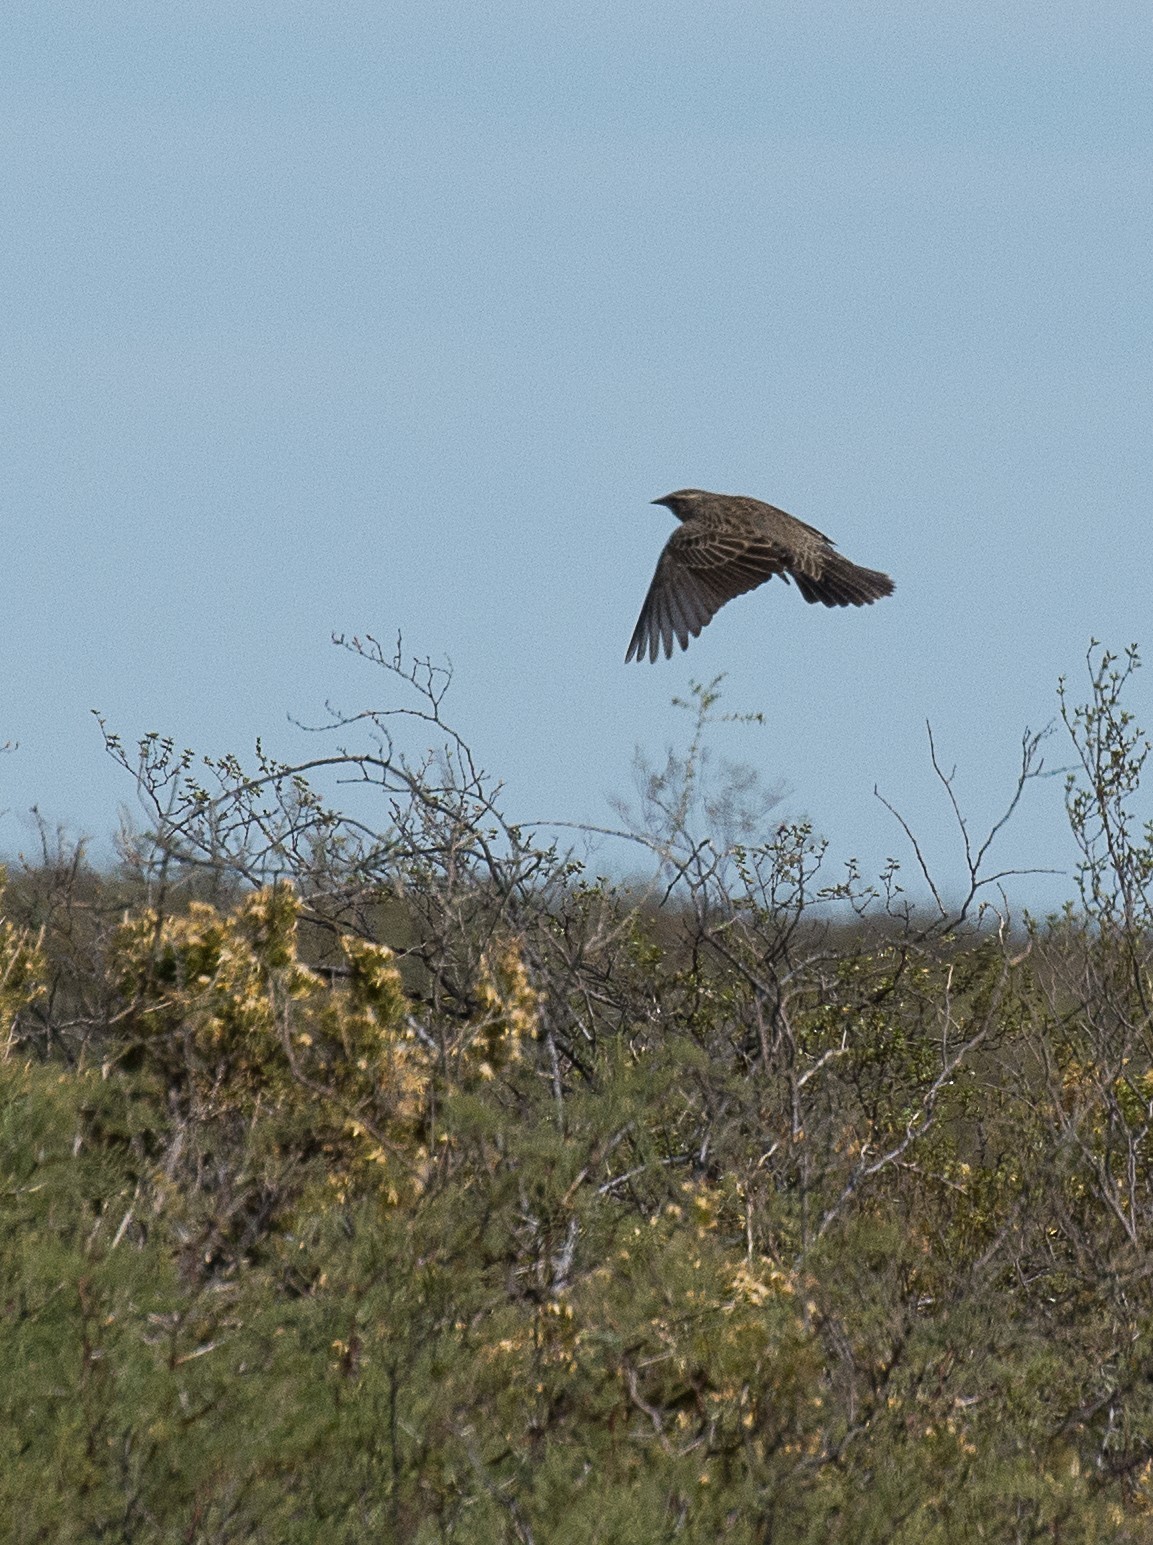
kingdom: Animalia
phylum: Chordata
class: Aves
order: Passeriformes
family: Icteridae
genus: Sturnella
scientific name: Sturnella loyca
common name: Long-tailed meadowlark
